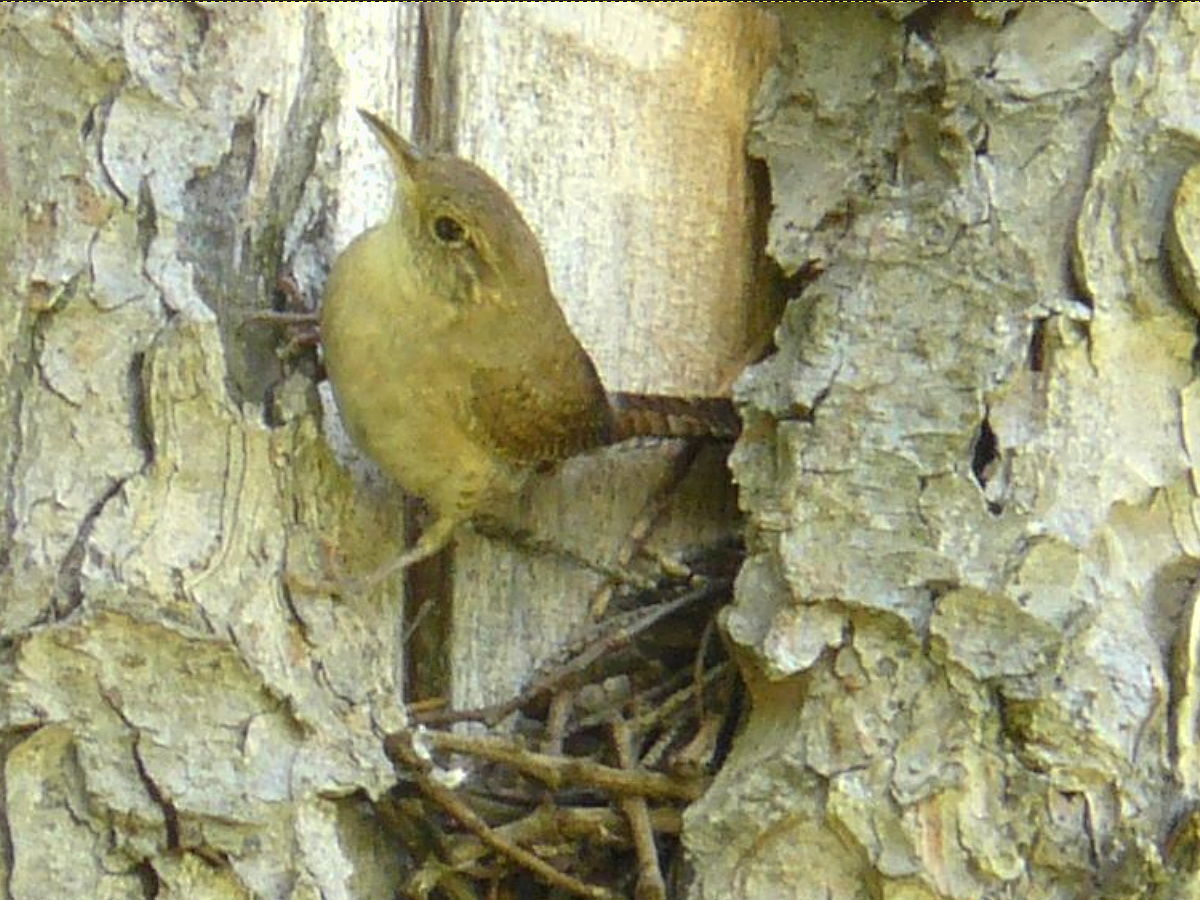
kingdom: Animalia
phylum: Chordata
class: Aves
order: Passeriformes
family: Troglodytidae
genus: Troglodytes
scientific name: Troglodytes aedon
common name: House wren
